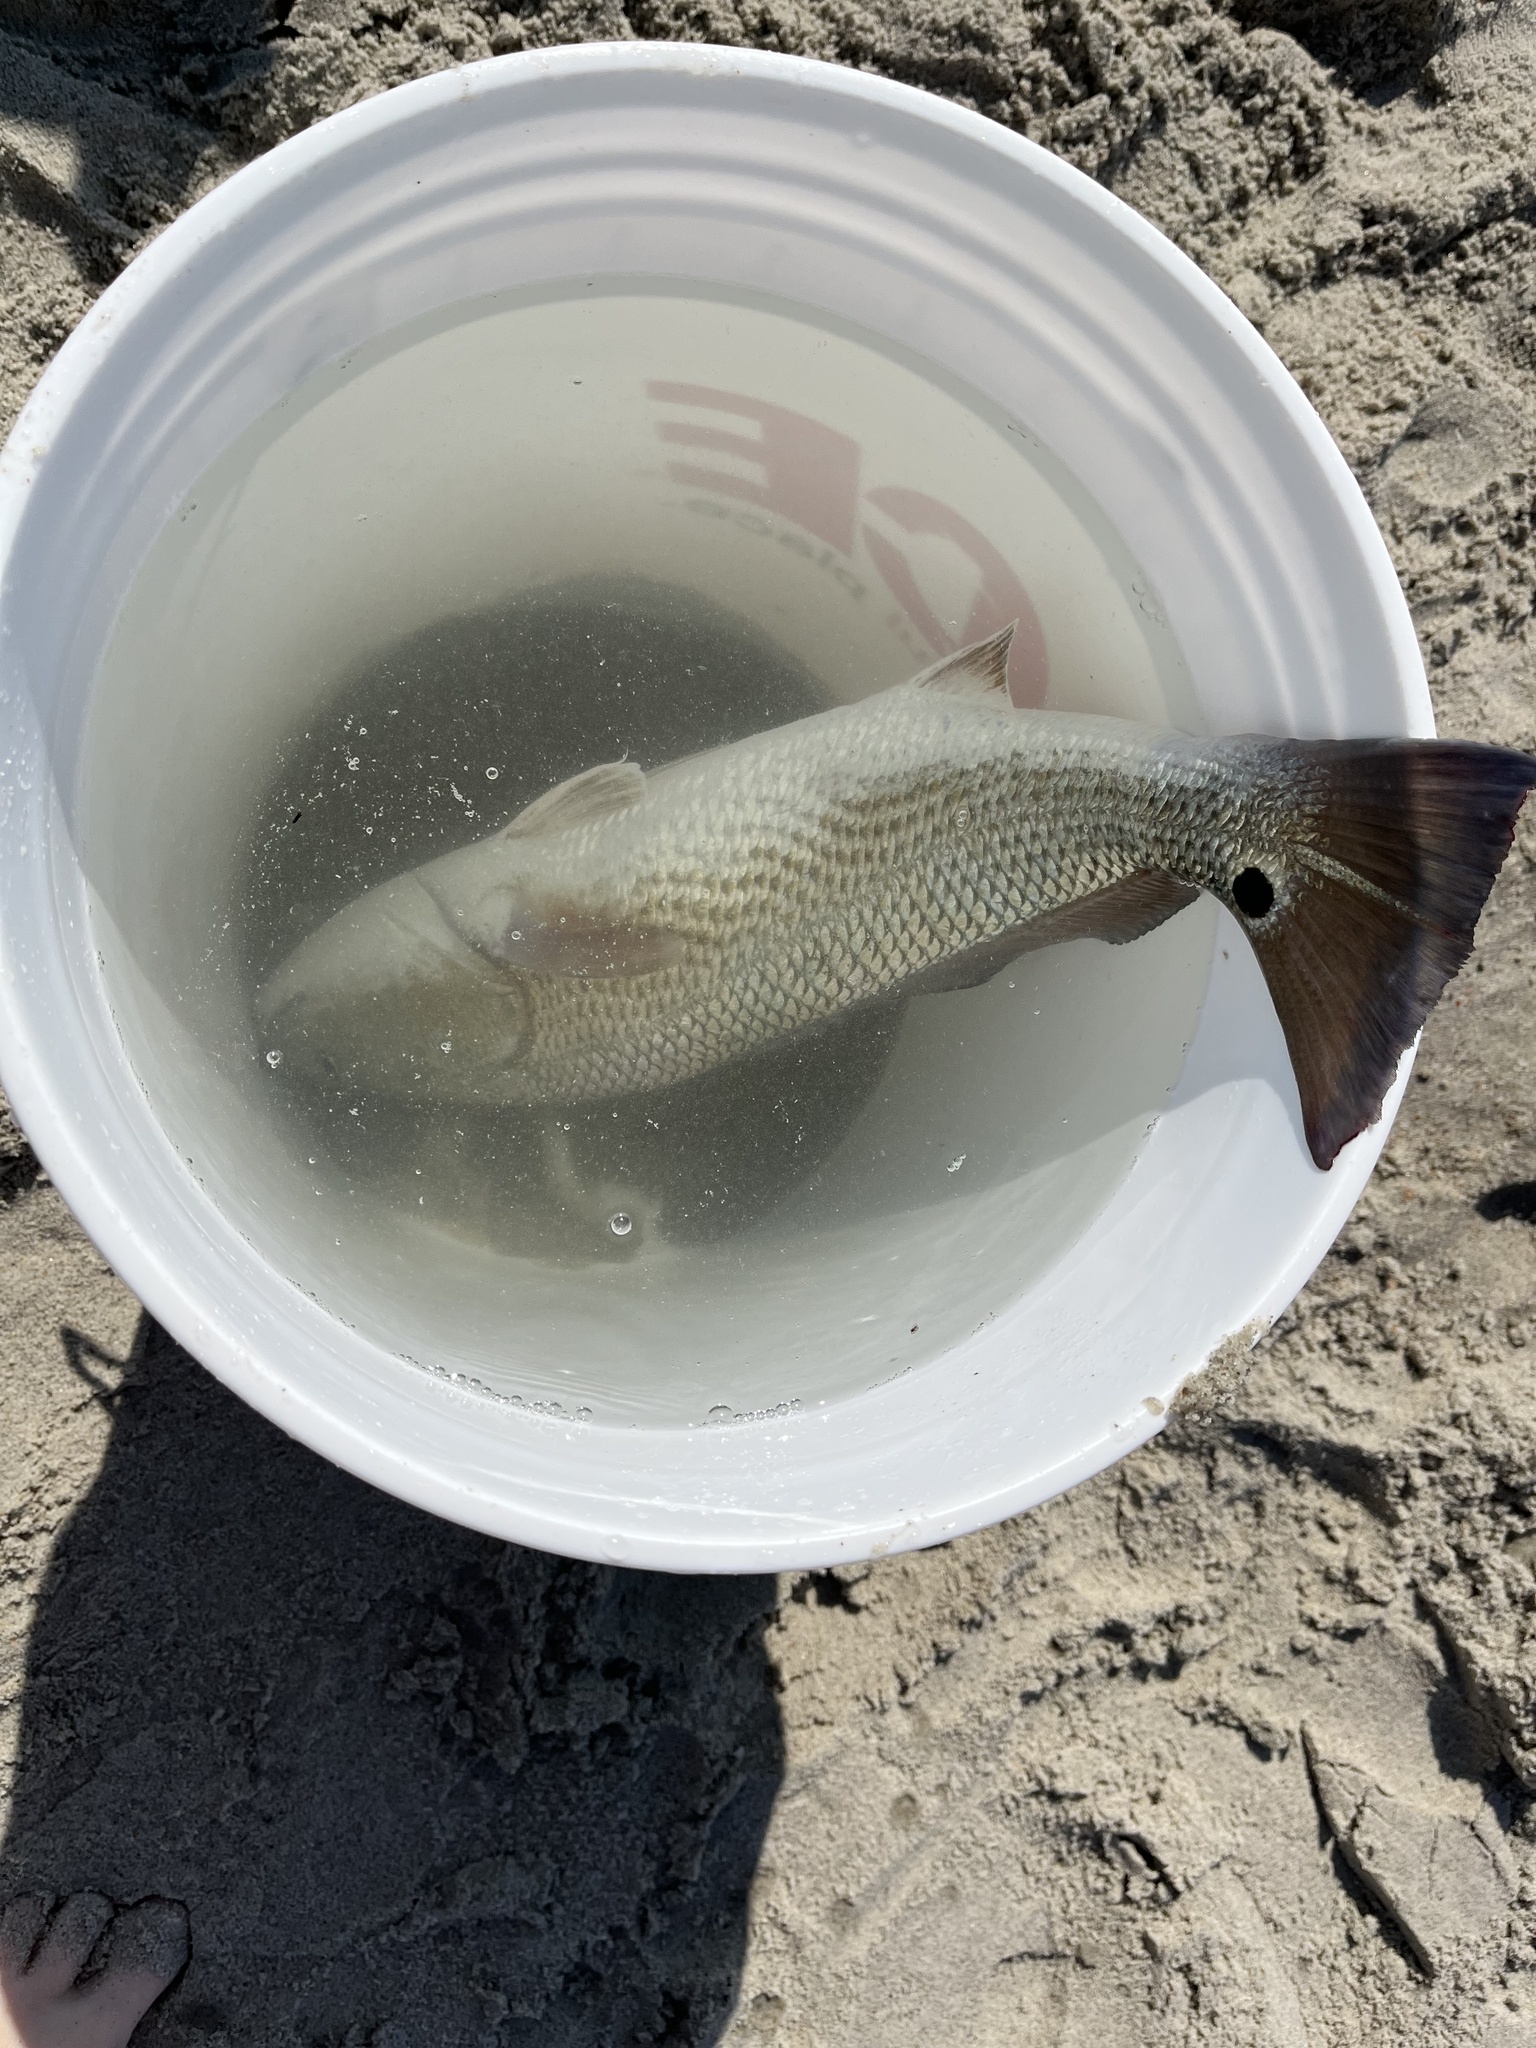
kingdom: Animalia
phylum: Chordata
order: Perciformes
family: Sciaenidae
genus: Sciaenops
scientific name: Sciaenops ocellatus
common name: Red drum
